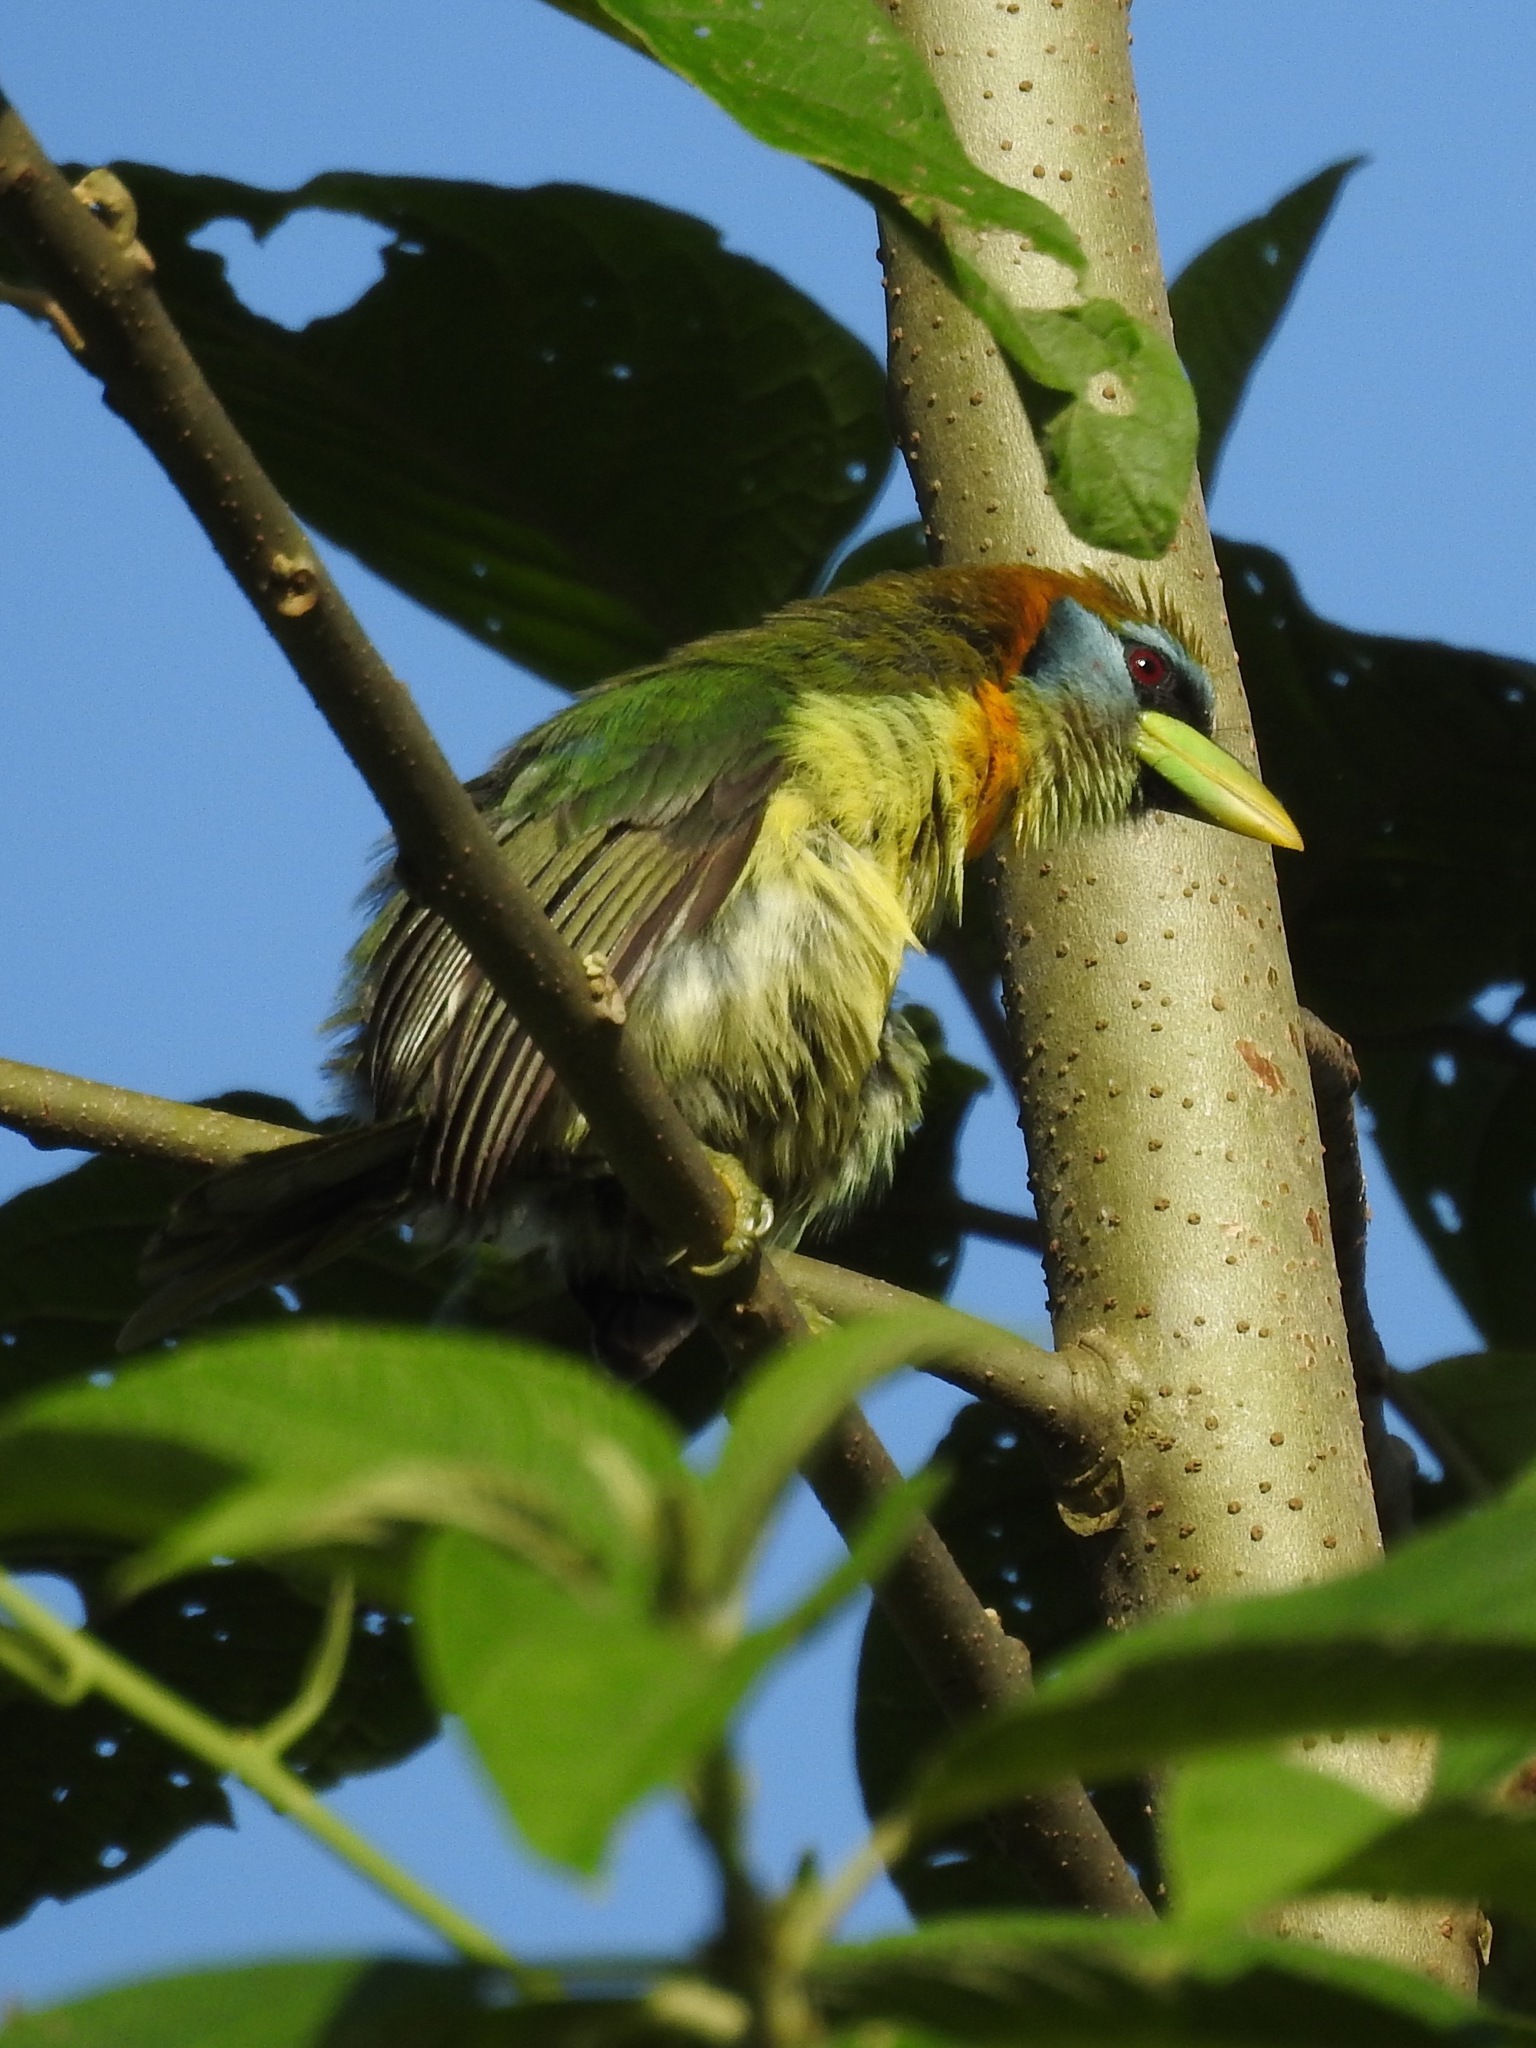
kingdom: Animalia
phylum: Chordata
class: Aves
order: Piciformes
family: Capitonidae
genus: Eubucco
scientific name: Eubucco bourcierii
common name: Red-headed barbet
